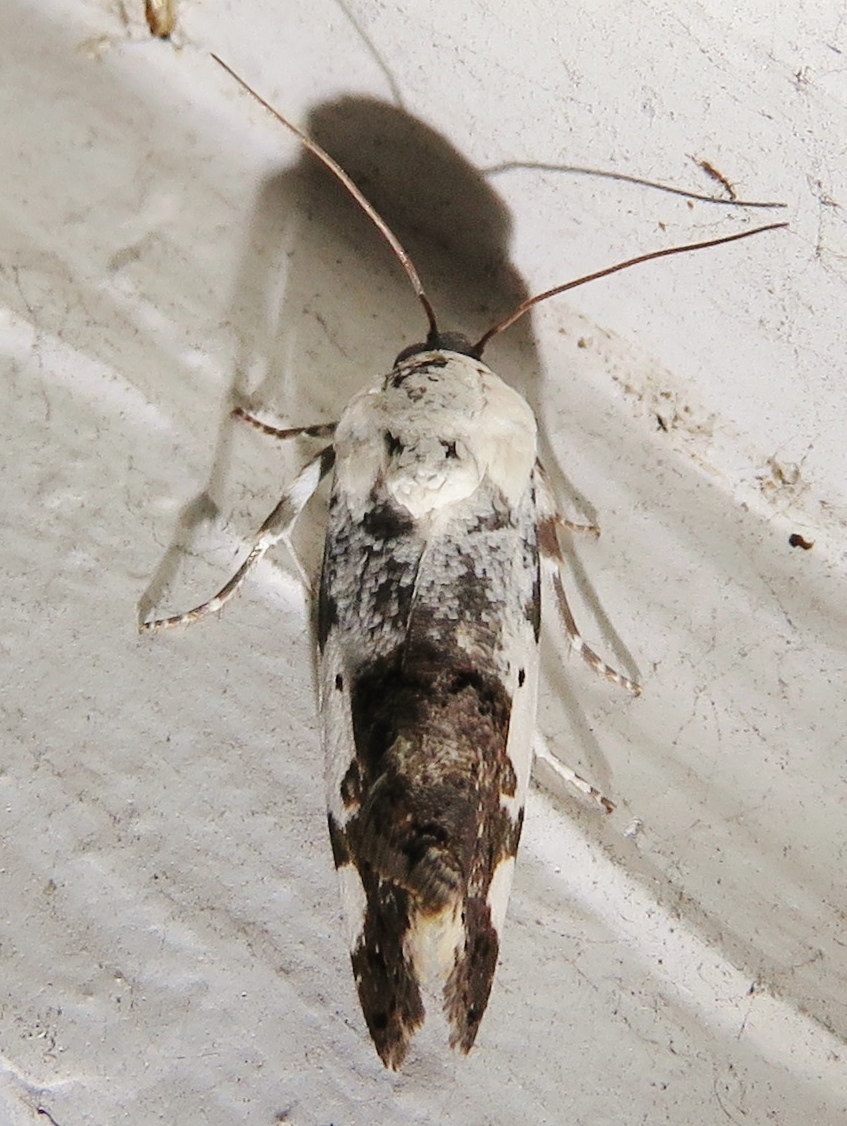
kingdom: Animalia
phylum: Arthropoda
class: Insecta
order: Lepidoptera
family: Noctuidae
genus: Acontia
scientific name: Acontia aprica
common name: Nun
